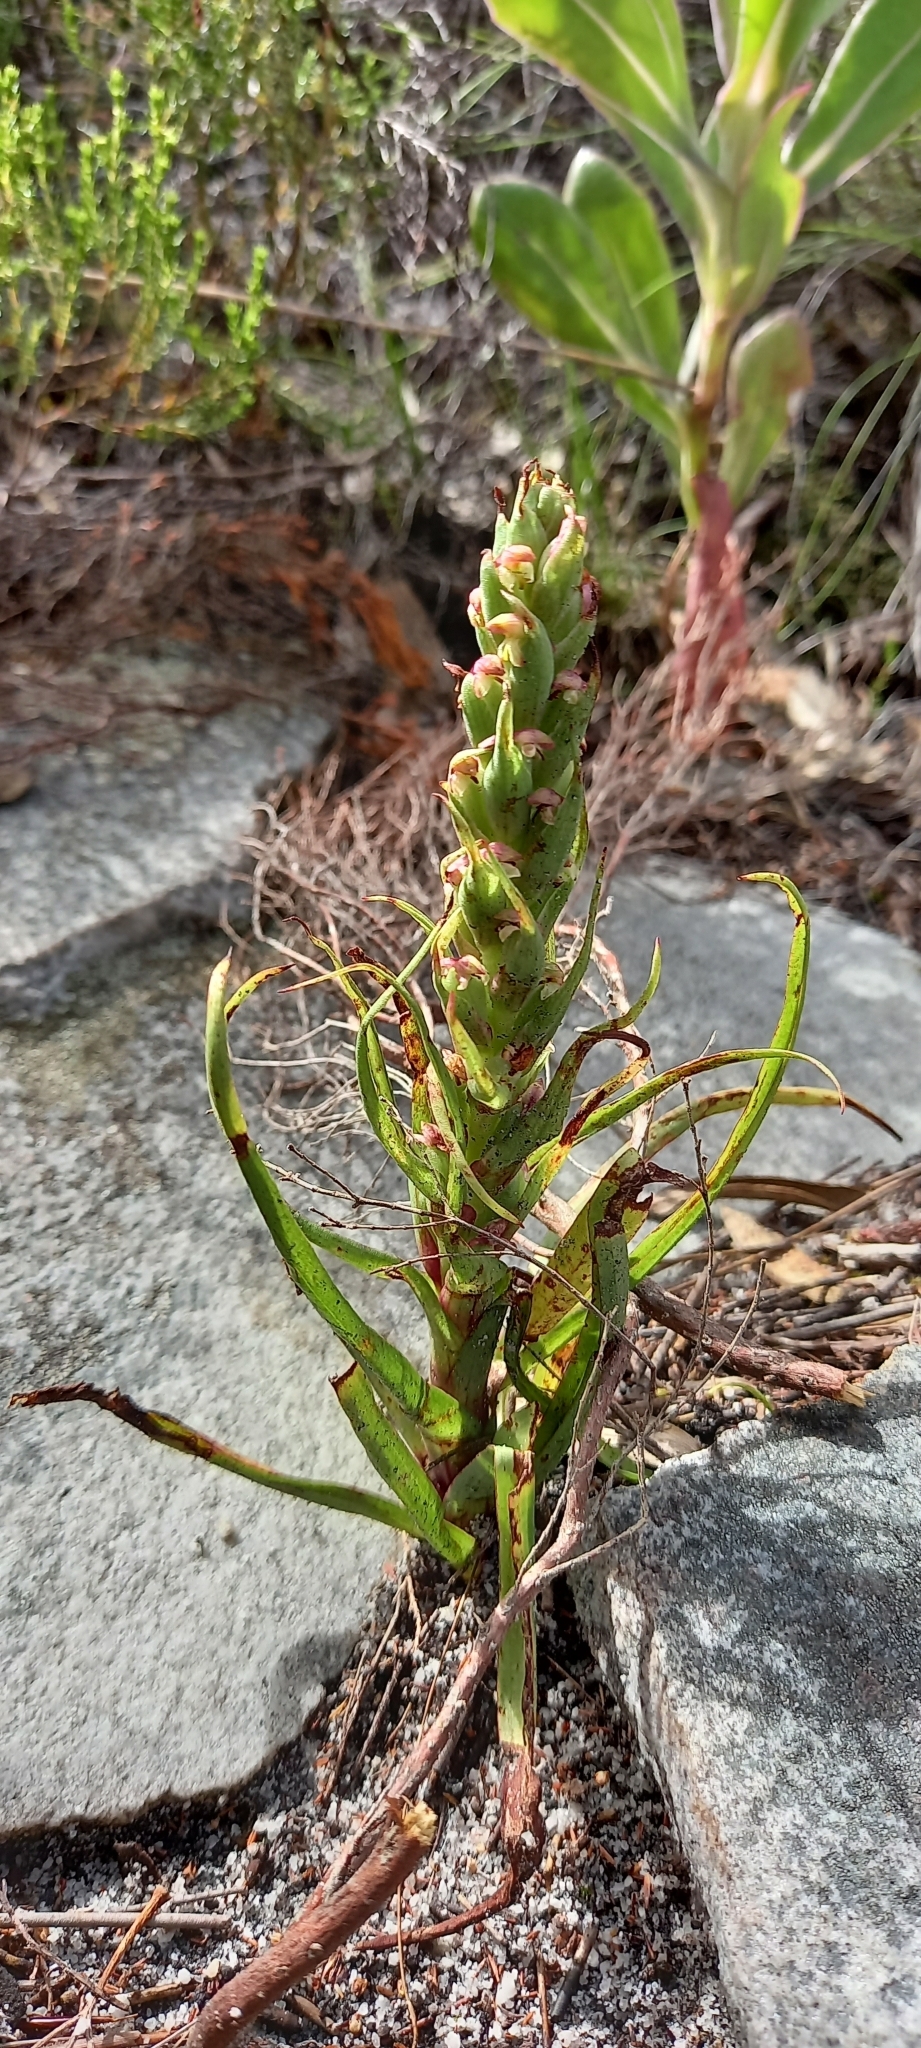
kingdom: Plantae
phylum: Tracheophyta
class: Liliopsida
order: Asparagales
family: Orchidaceae
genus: Disa
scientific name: Disa bracteata
